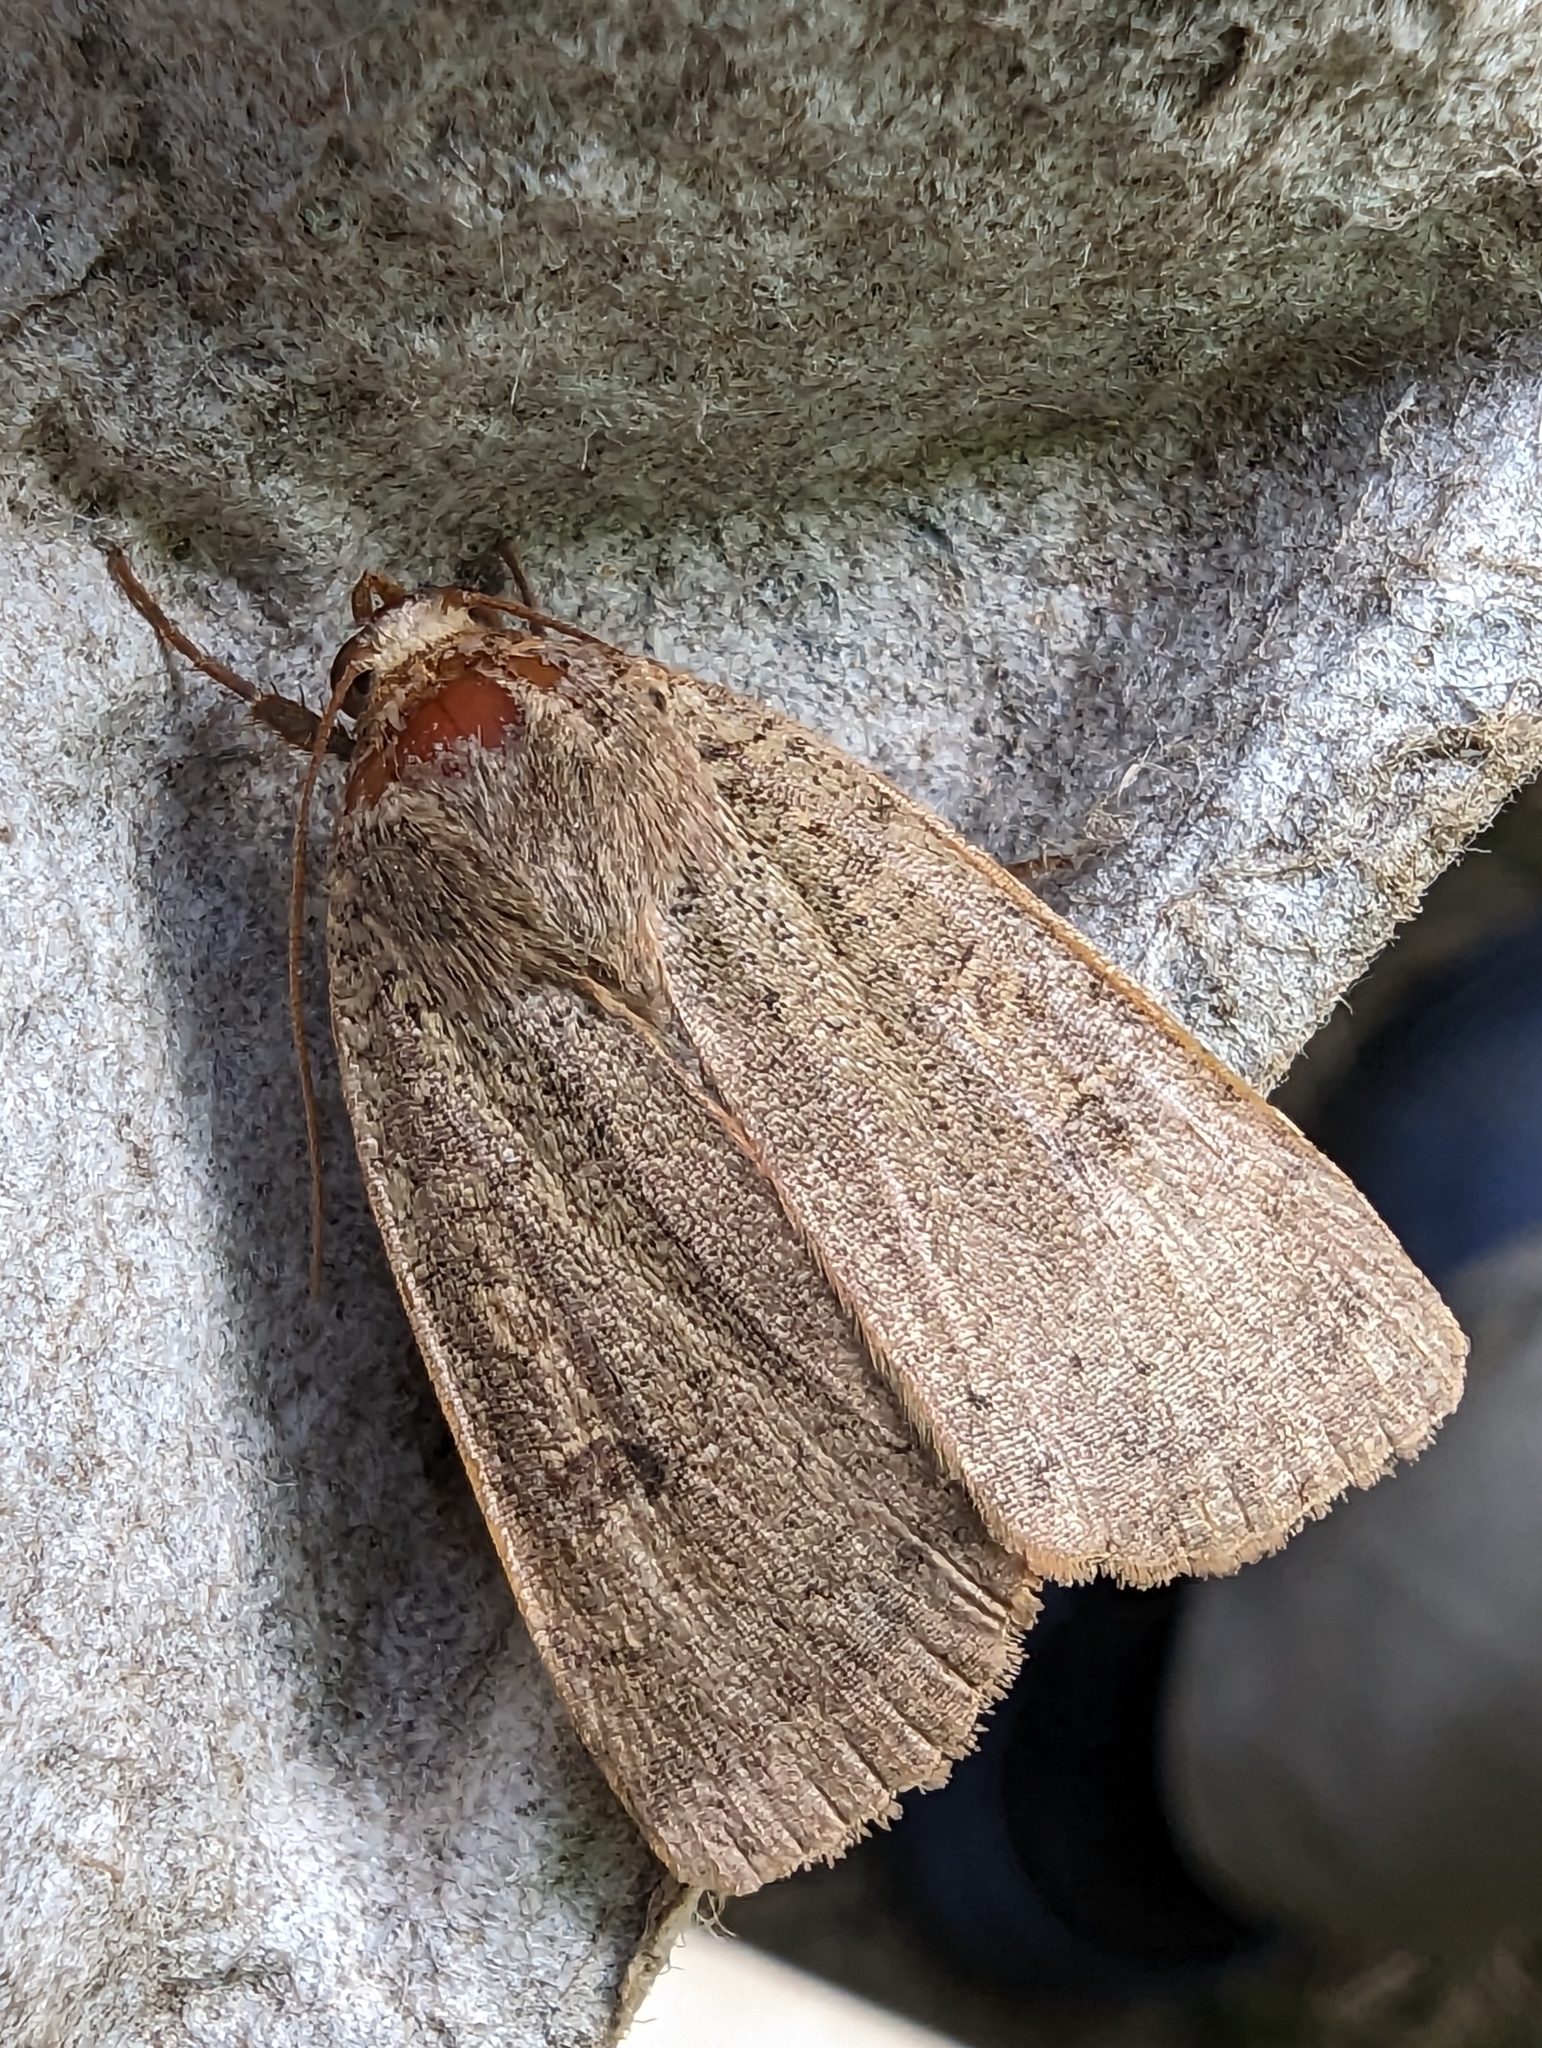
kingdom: Animalia
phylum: Arthropoda
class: Insecta
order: Lepidoptera
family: Noctuidae
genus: Noctua
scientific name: Noctua comes
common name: Lesser yellow underwing
